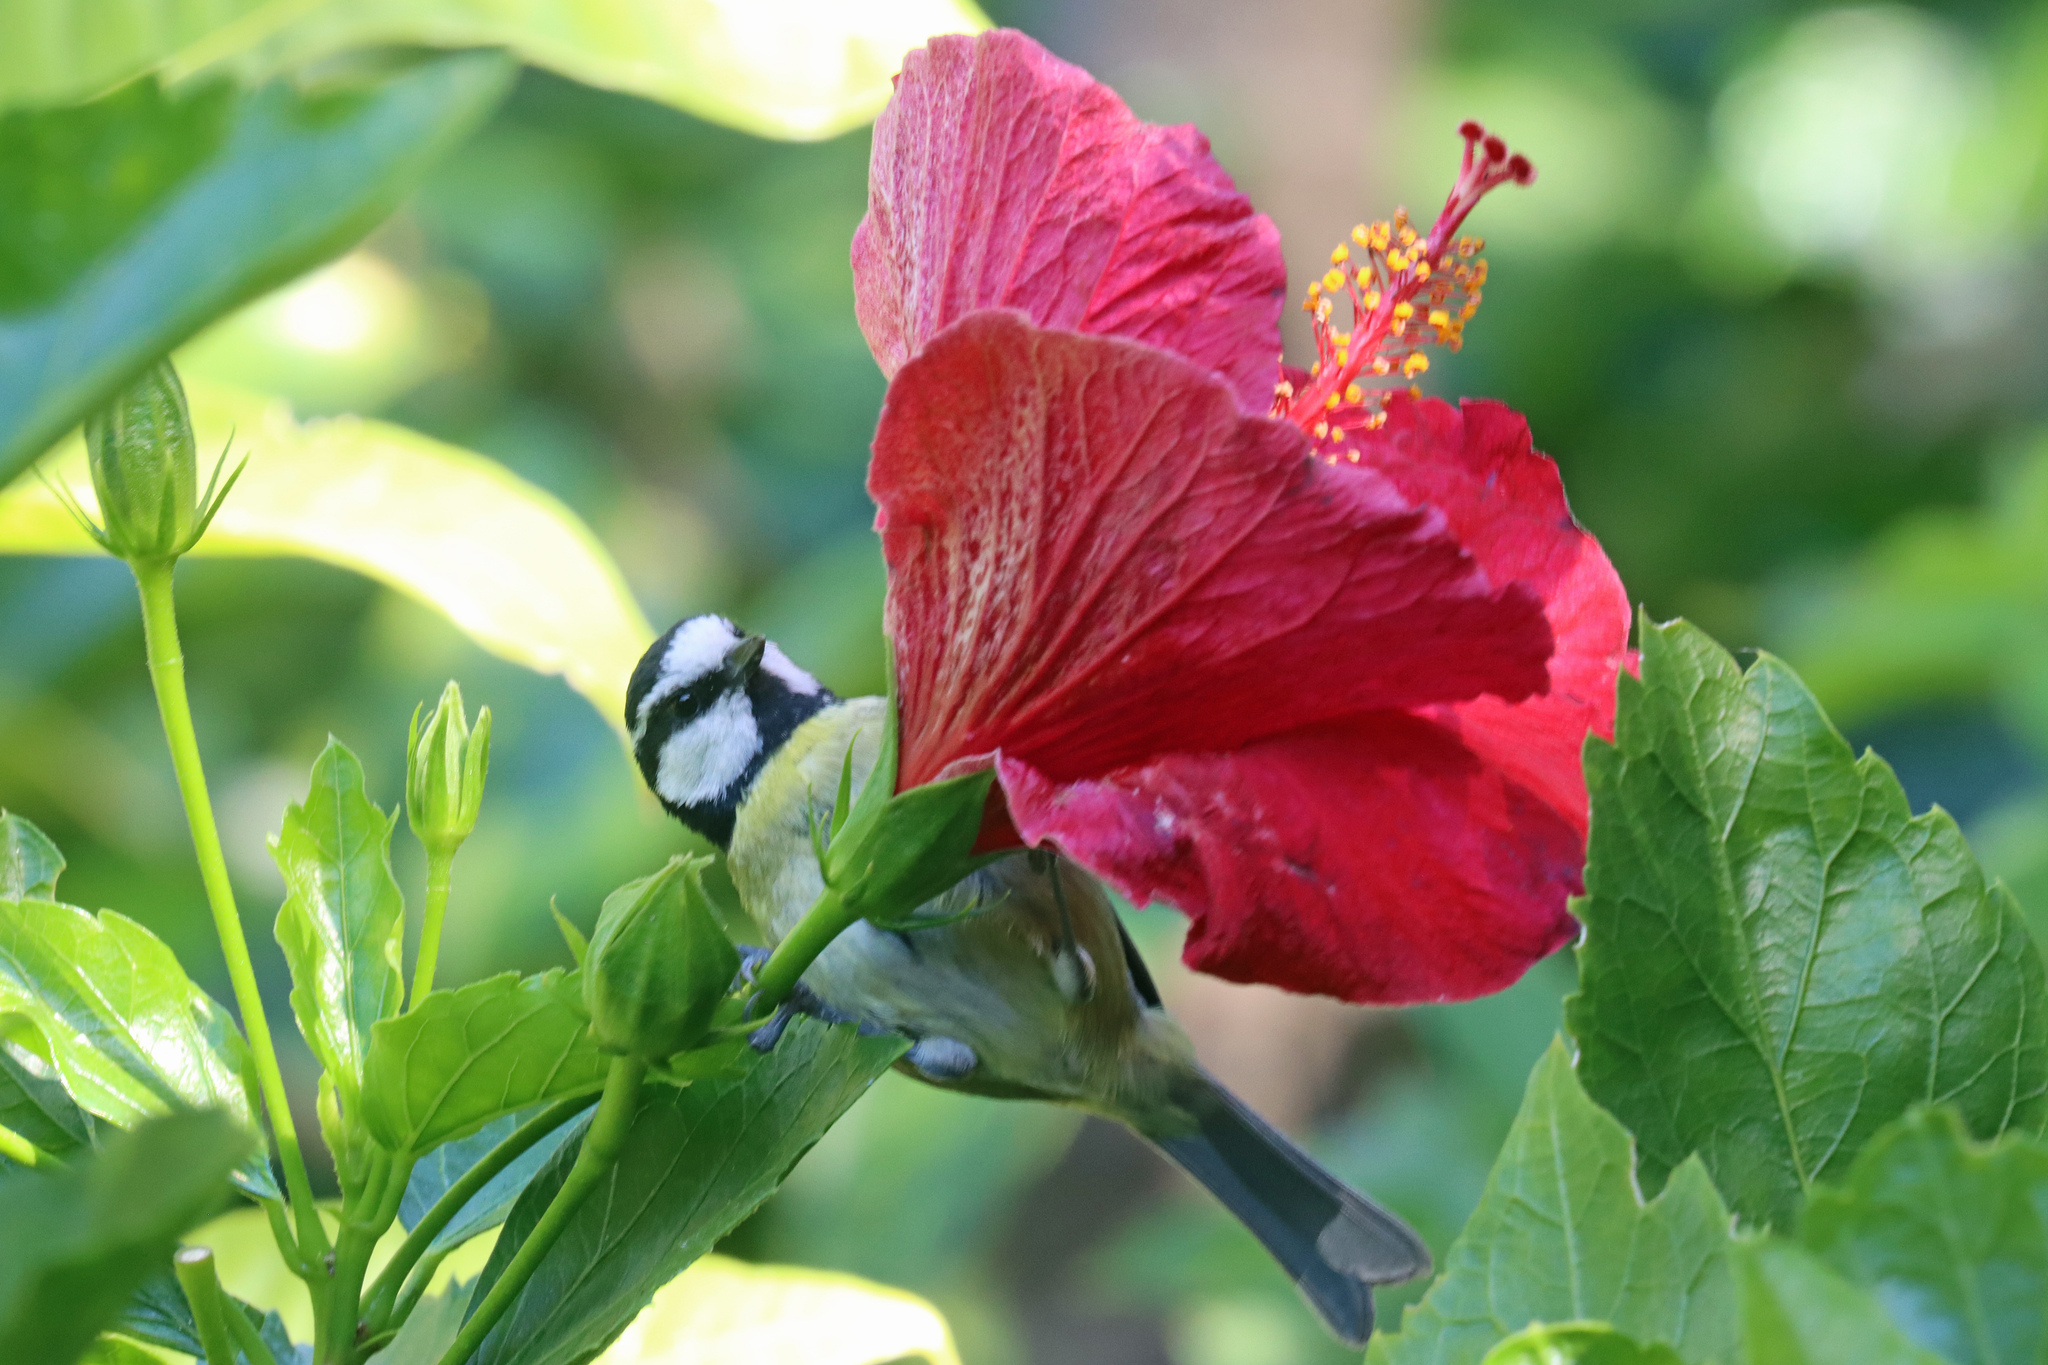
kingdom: Animalia
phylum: Chordata
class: Aves
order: Passeriformes
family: Paridae
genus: Cyanistes
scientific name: Cyanistes teneriffae
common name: African blue tit
